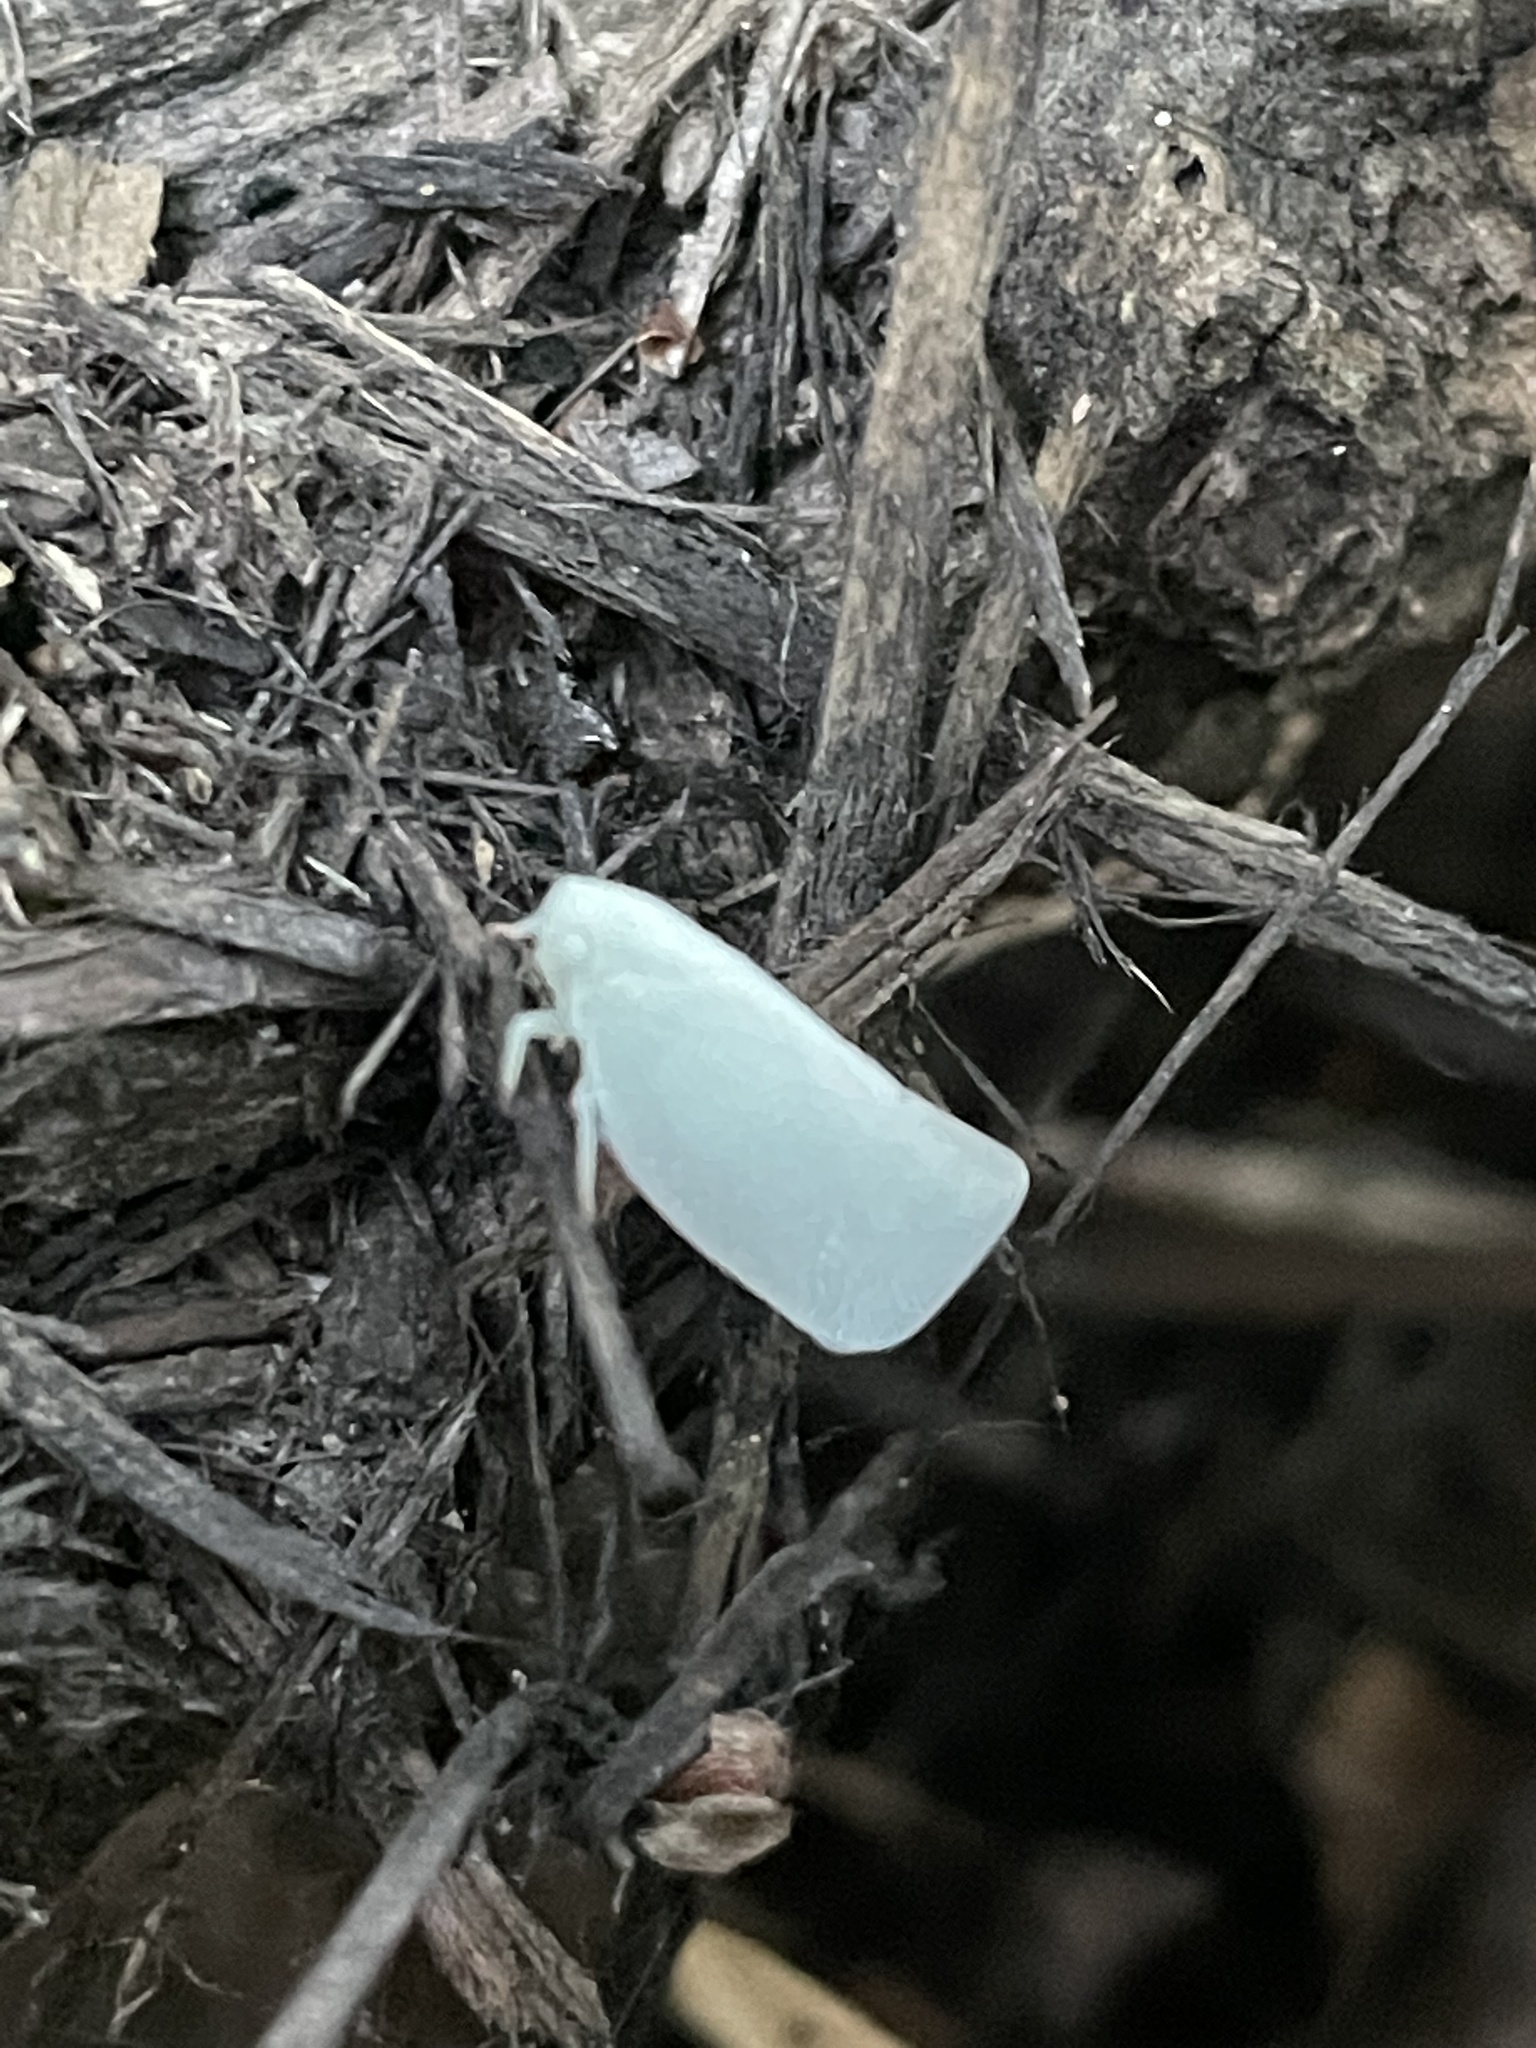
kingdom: Animalia
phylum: Arthropoda
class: Insecta
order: Hemiptera
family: Flatidae
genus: Flatormenis
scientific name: Flatormenis proxima
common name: Northern flatid planthopper
